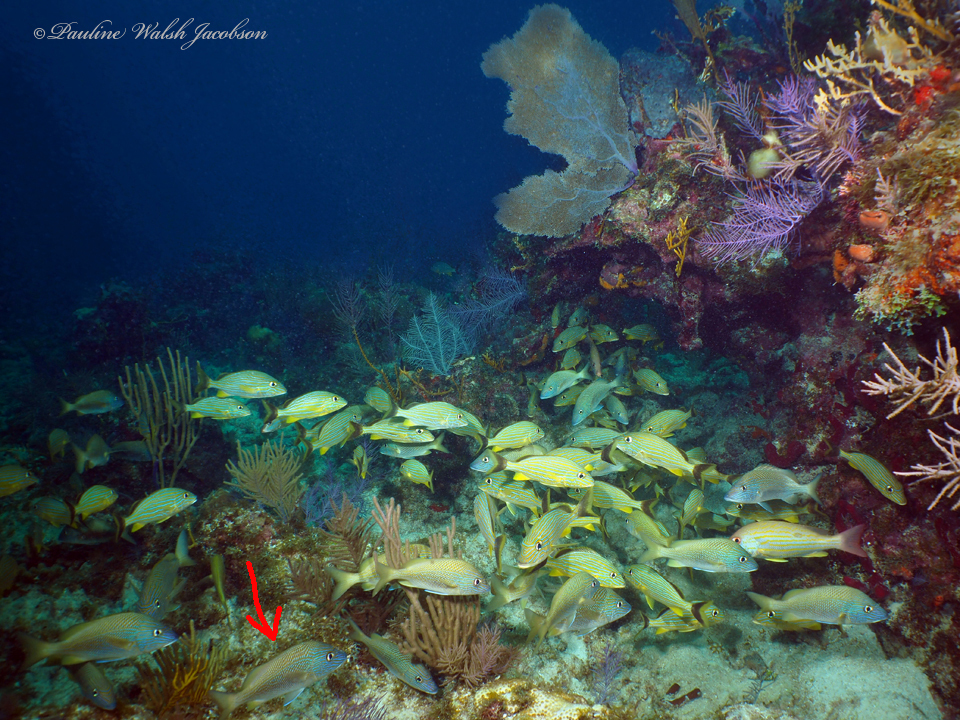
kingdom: Animalia
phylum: Chordata
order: Perciformes
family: Haemulidae
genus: Haemulon
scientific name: Haemulon plumierii
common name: White grunt
